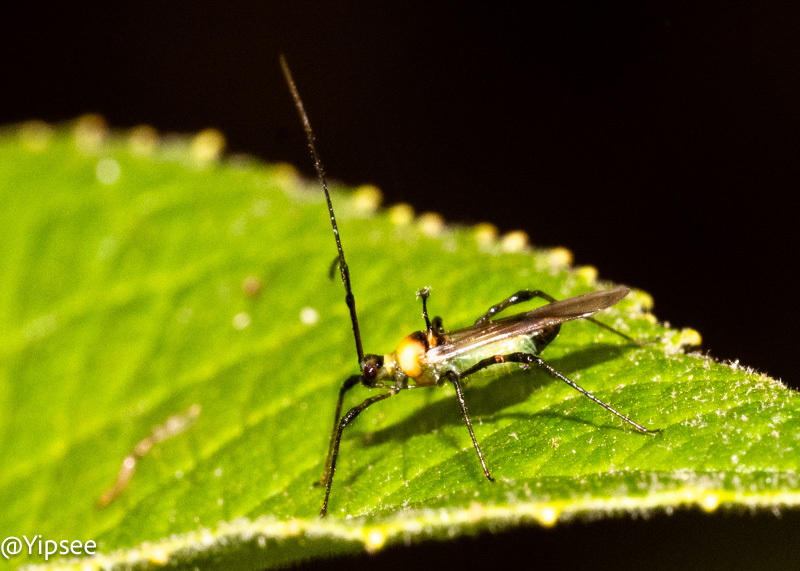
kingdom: Animalia
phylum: Arthropoda
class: Insecta
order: Hemiptera
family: Miridae
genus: Helopeltis
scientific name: Helopeltis fasciaticollis
